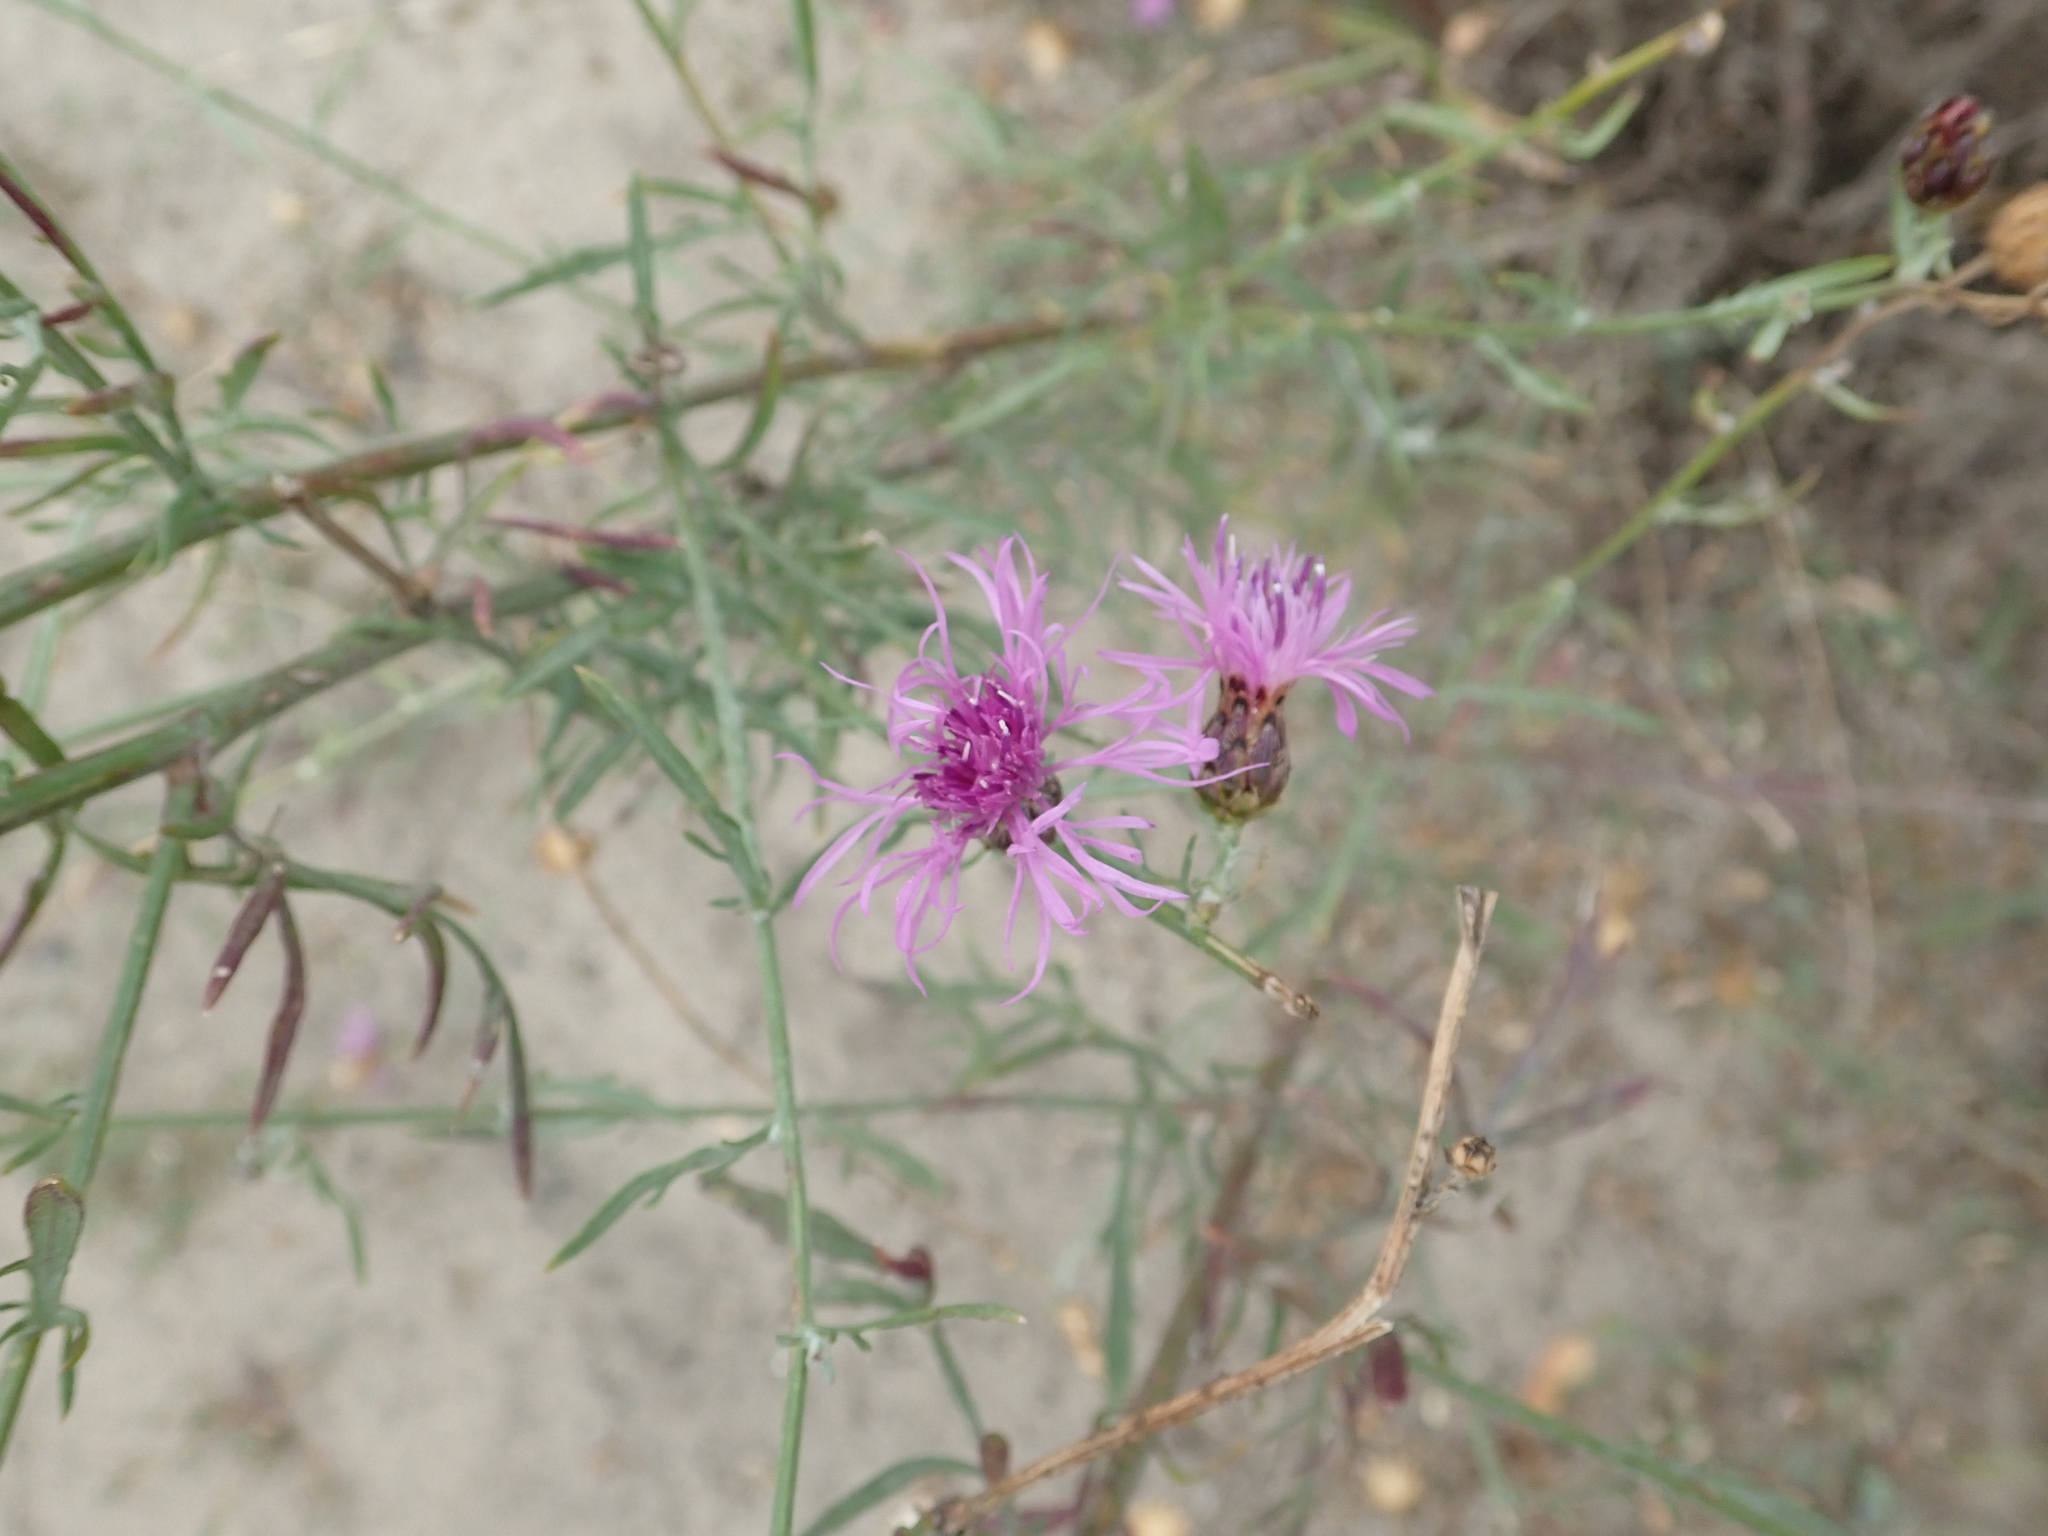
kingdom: Plantae
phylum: Tracheophyta
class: Magnoliopsida
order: Asterales
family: Asteraceae
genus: Centaurea
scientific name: Centaurea stoebe
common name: Spotted knapweed
